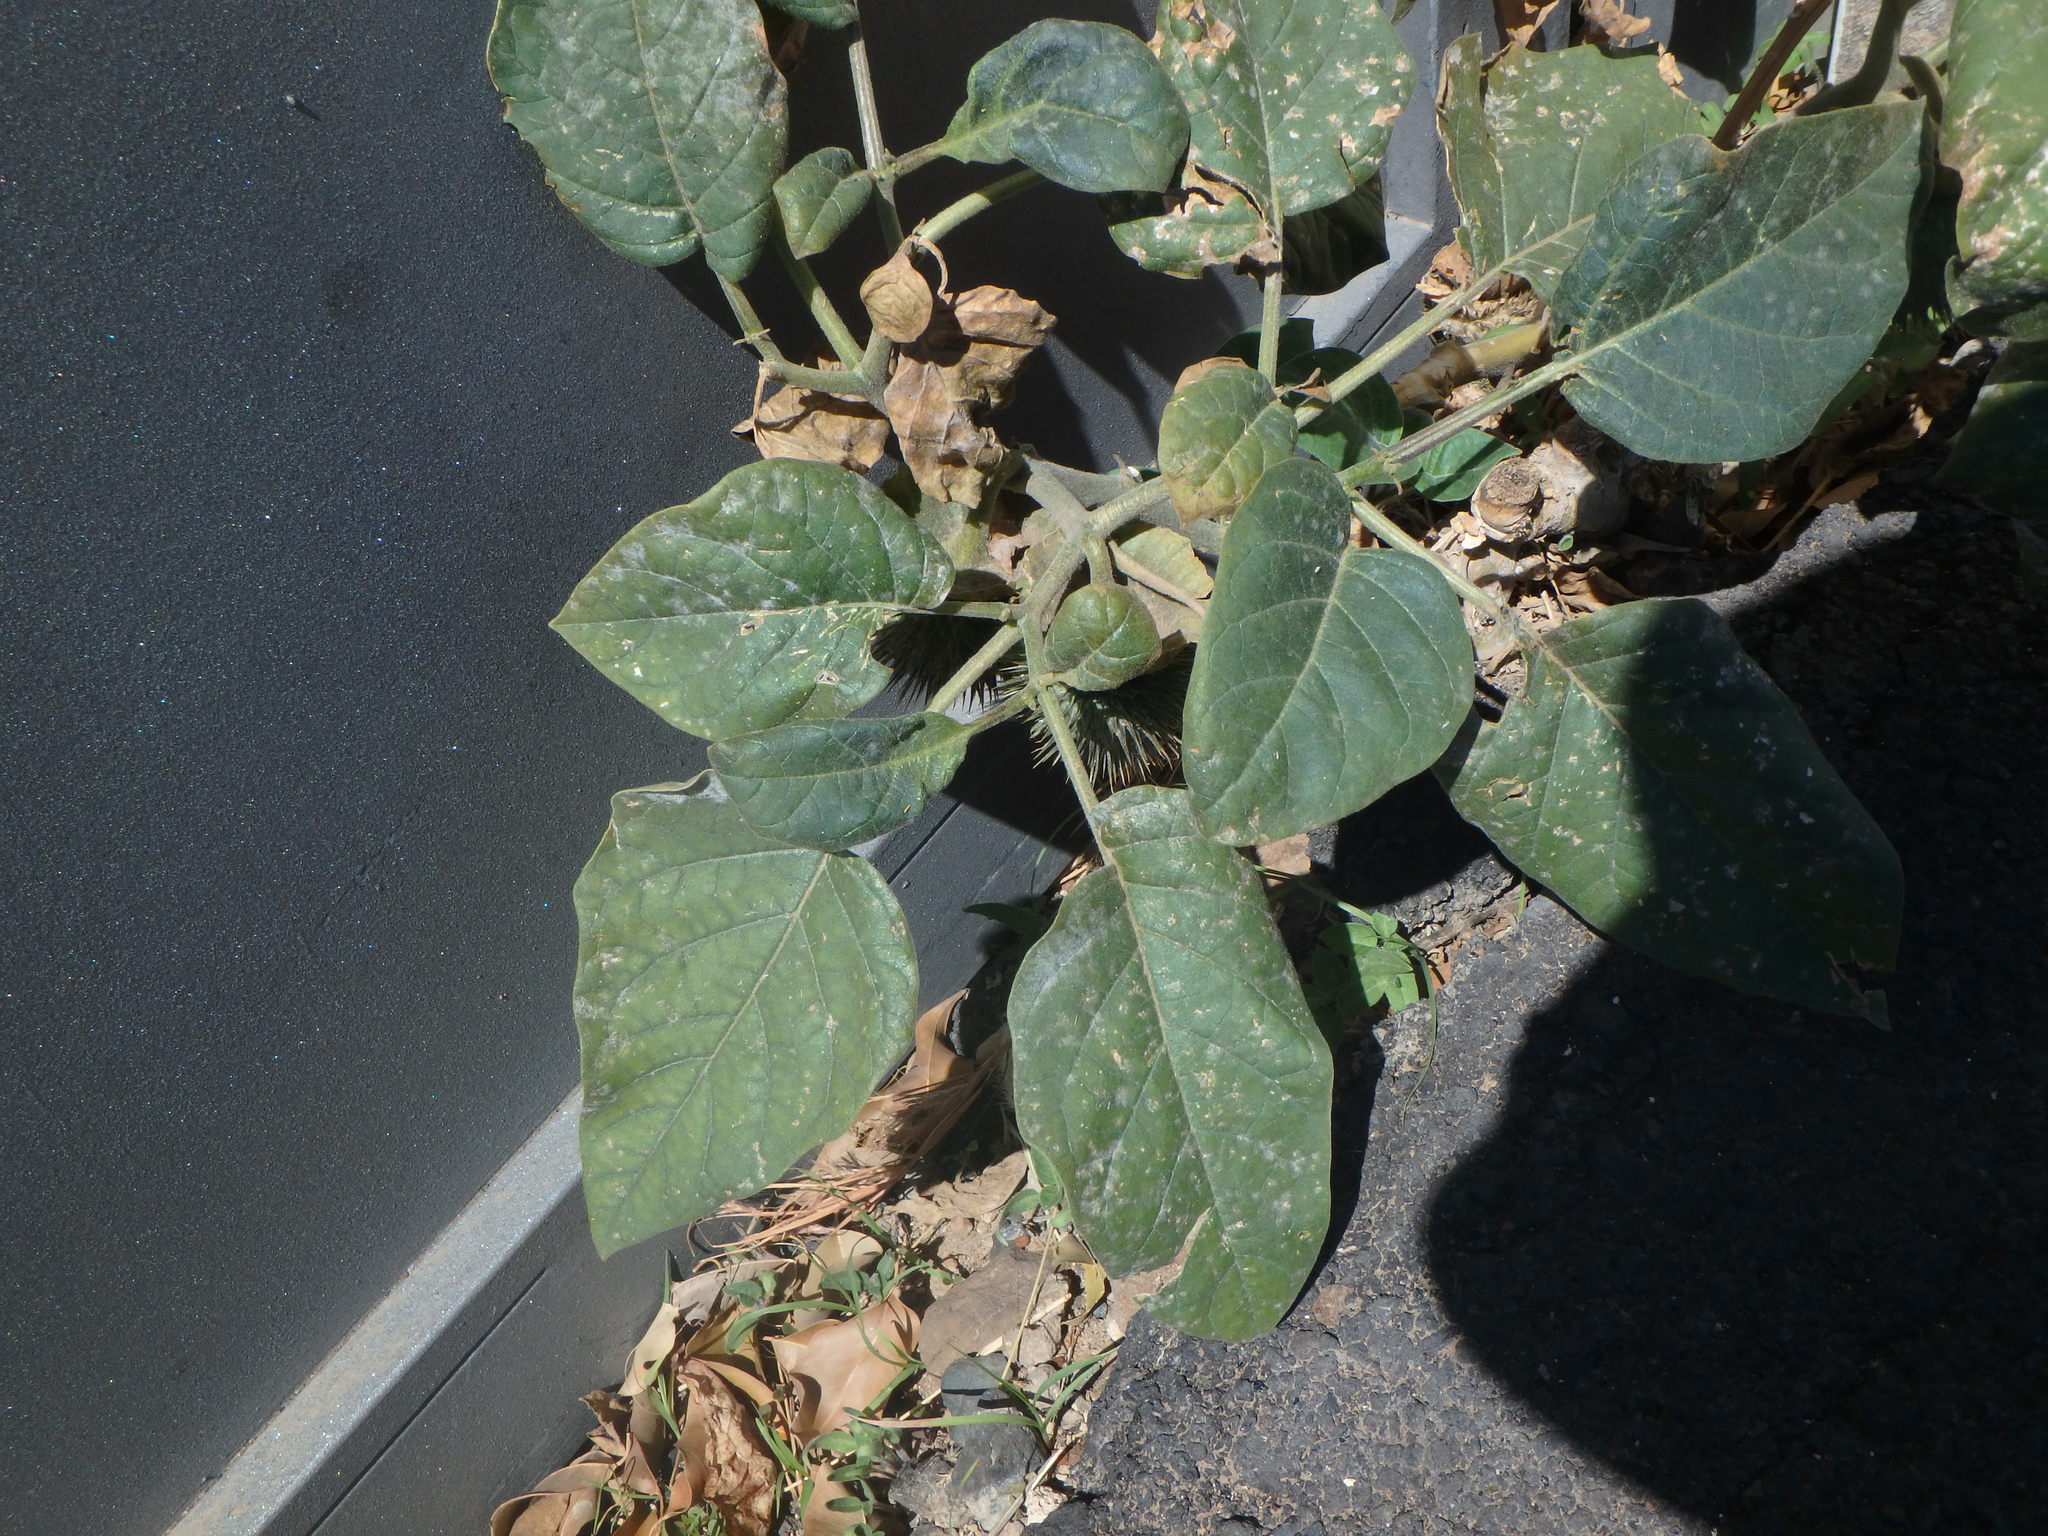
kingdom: Plantae
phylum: Tracheophyta
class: Magnoliopsida
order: Solanales
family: Solanaceae
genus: Datura
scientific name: Datura innoxia
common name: Downy thorn-apple
